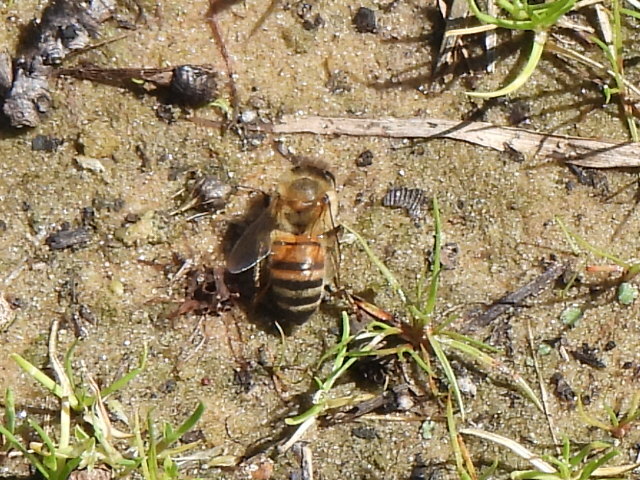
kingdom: Animalia
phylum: Arthropoda
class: Insecta
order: Hymenoptera
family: Apidae
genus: Apis
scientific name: Apis mellifera
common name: Honey bee
